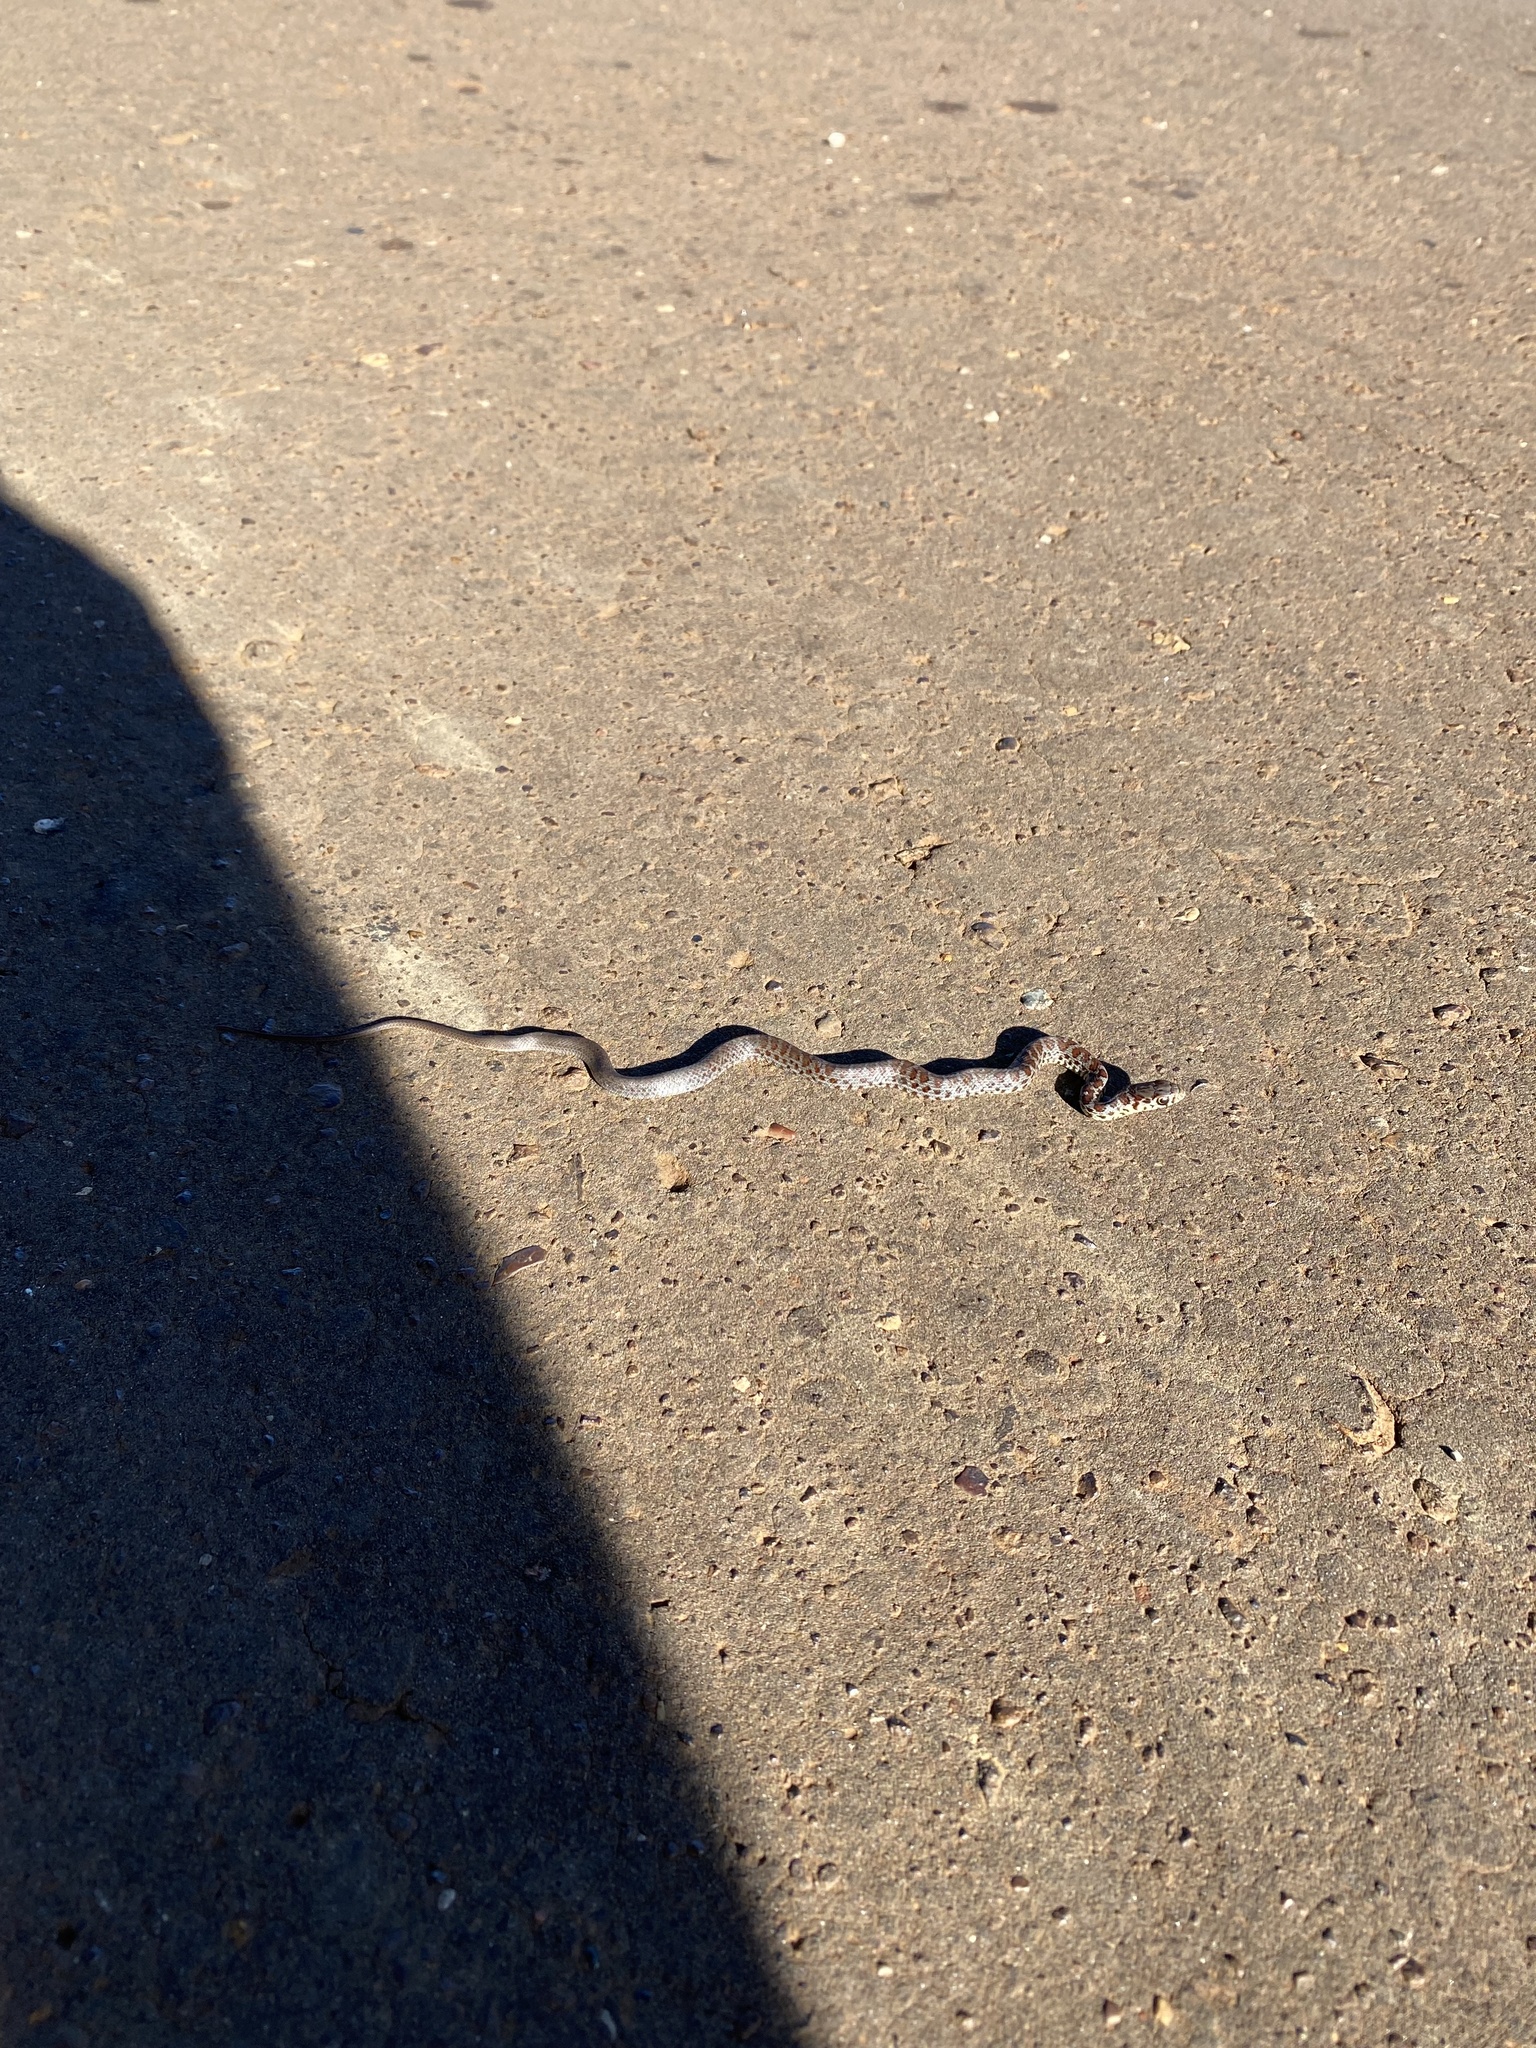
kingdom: Animalia
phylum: Chordata
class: Squamata
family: Colubridae
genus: Coluber
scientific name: Coluber constrictor
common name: Eastern racer
